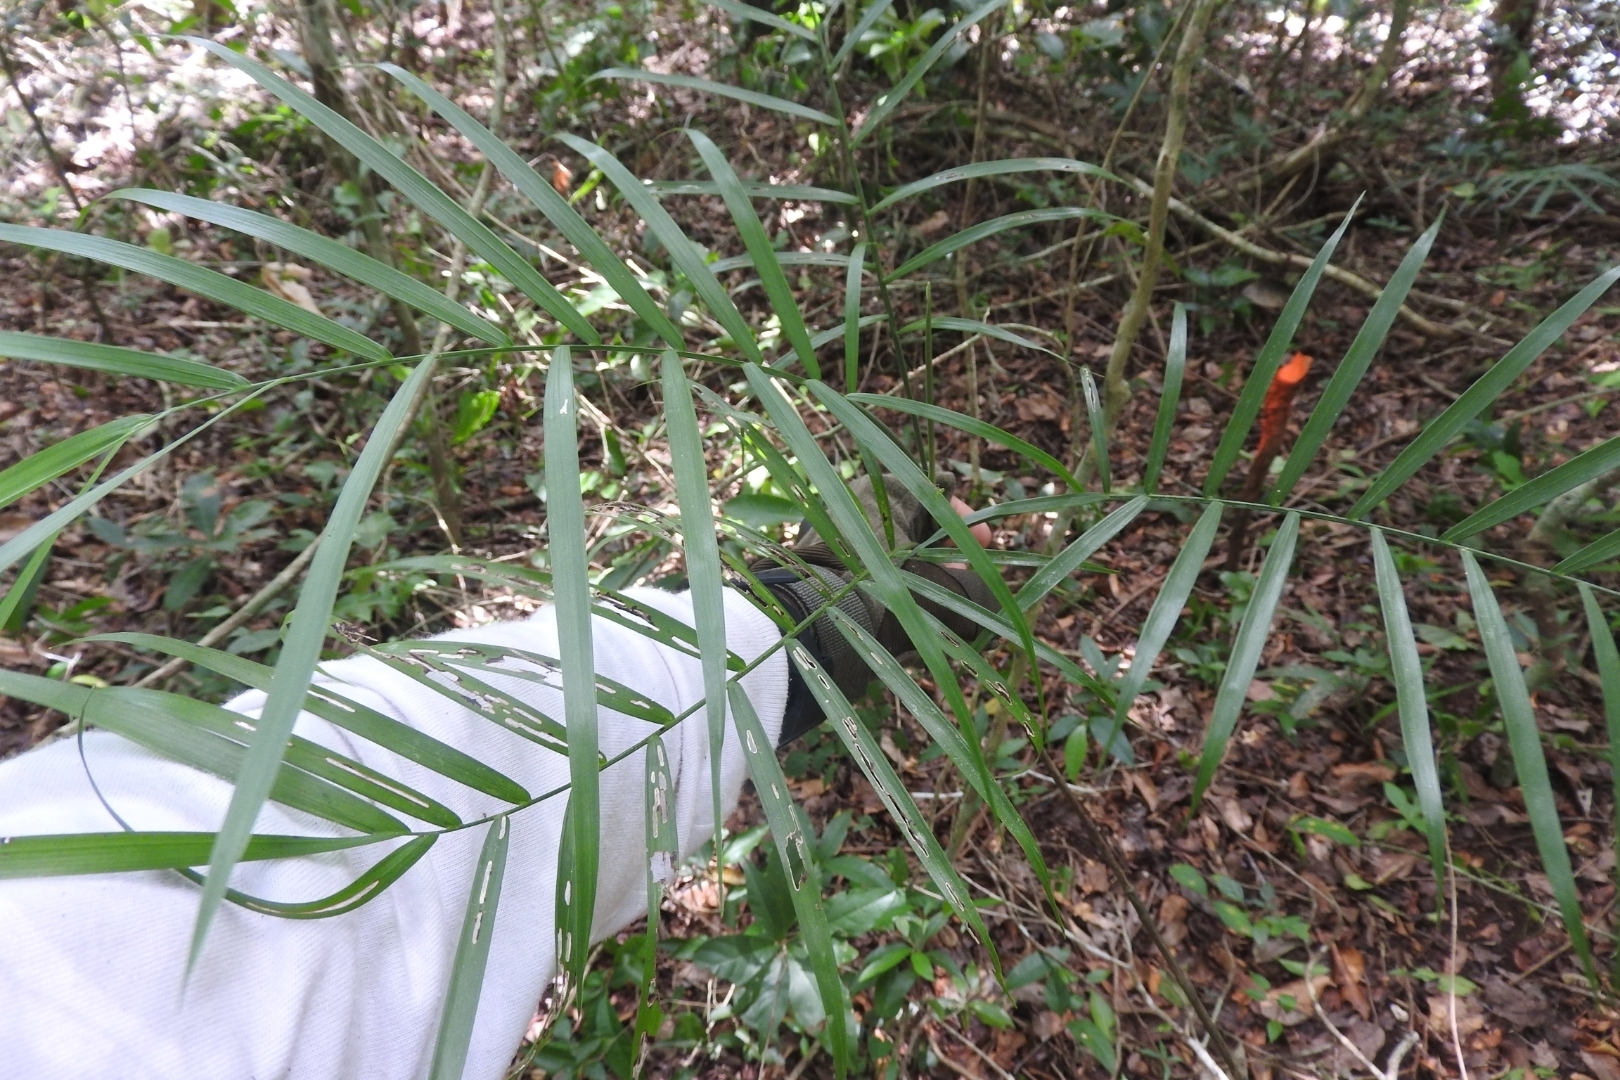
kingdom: Plantae
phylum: Tracheophyta
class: Liliopsida
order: Arecales
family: Arecaceae
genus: Chamaedorea
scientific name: Chamaedorea seifrizii
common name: Seifriz's chamaedorea
